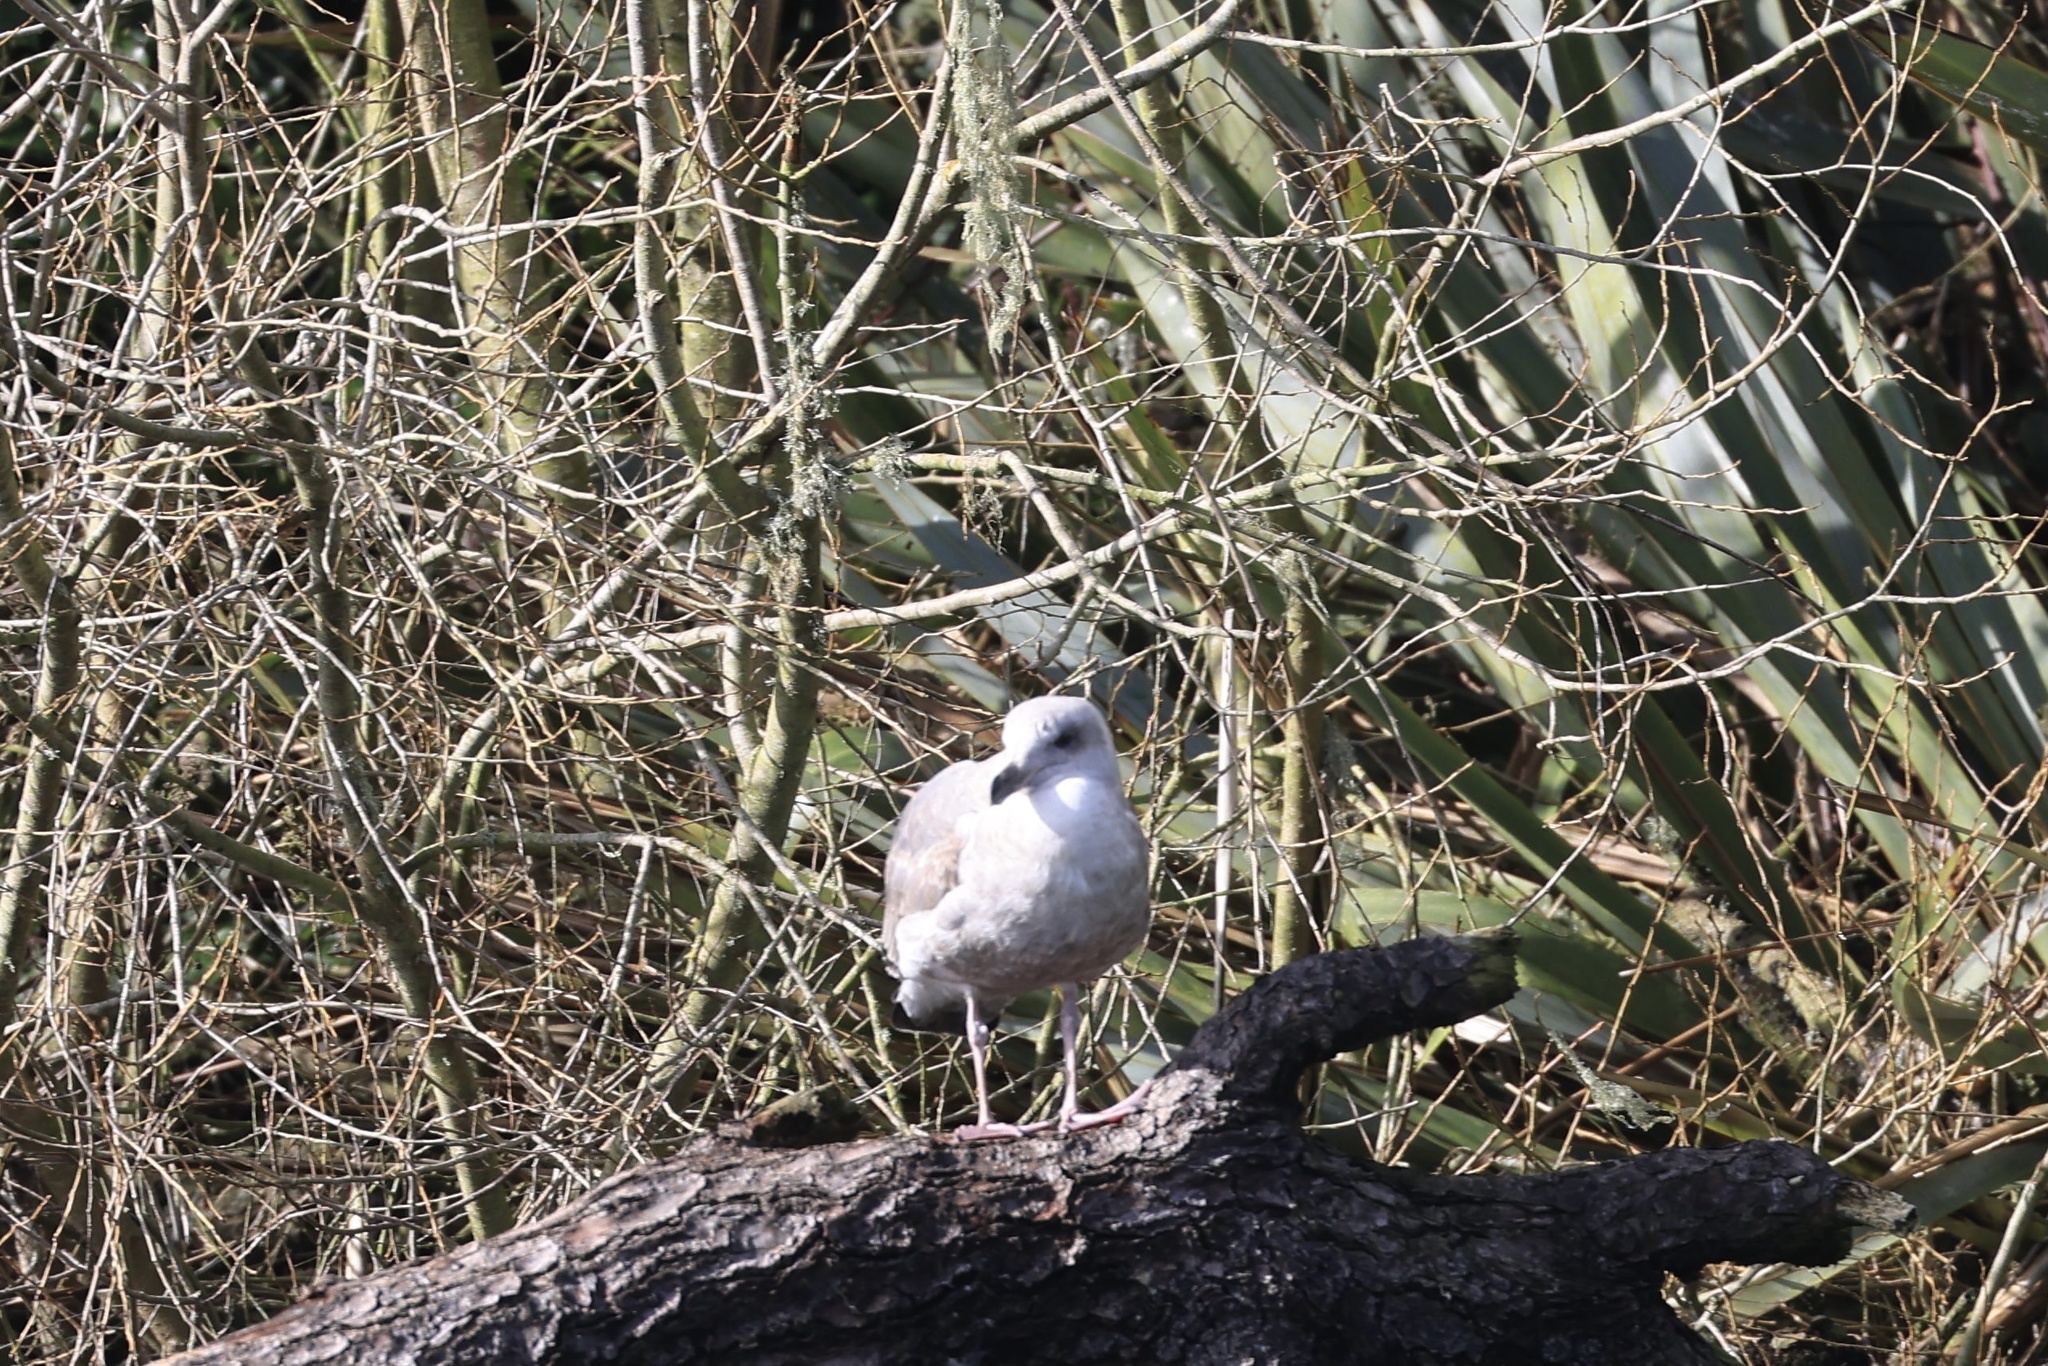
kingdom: Animalia
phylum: Chordata
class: Aves
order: Charadriiformes
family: Laridae
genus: Larus
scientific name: Larus
